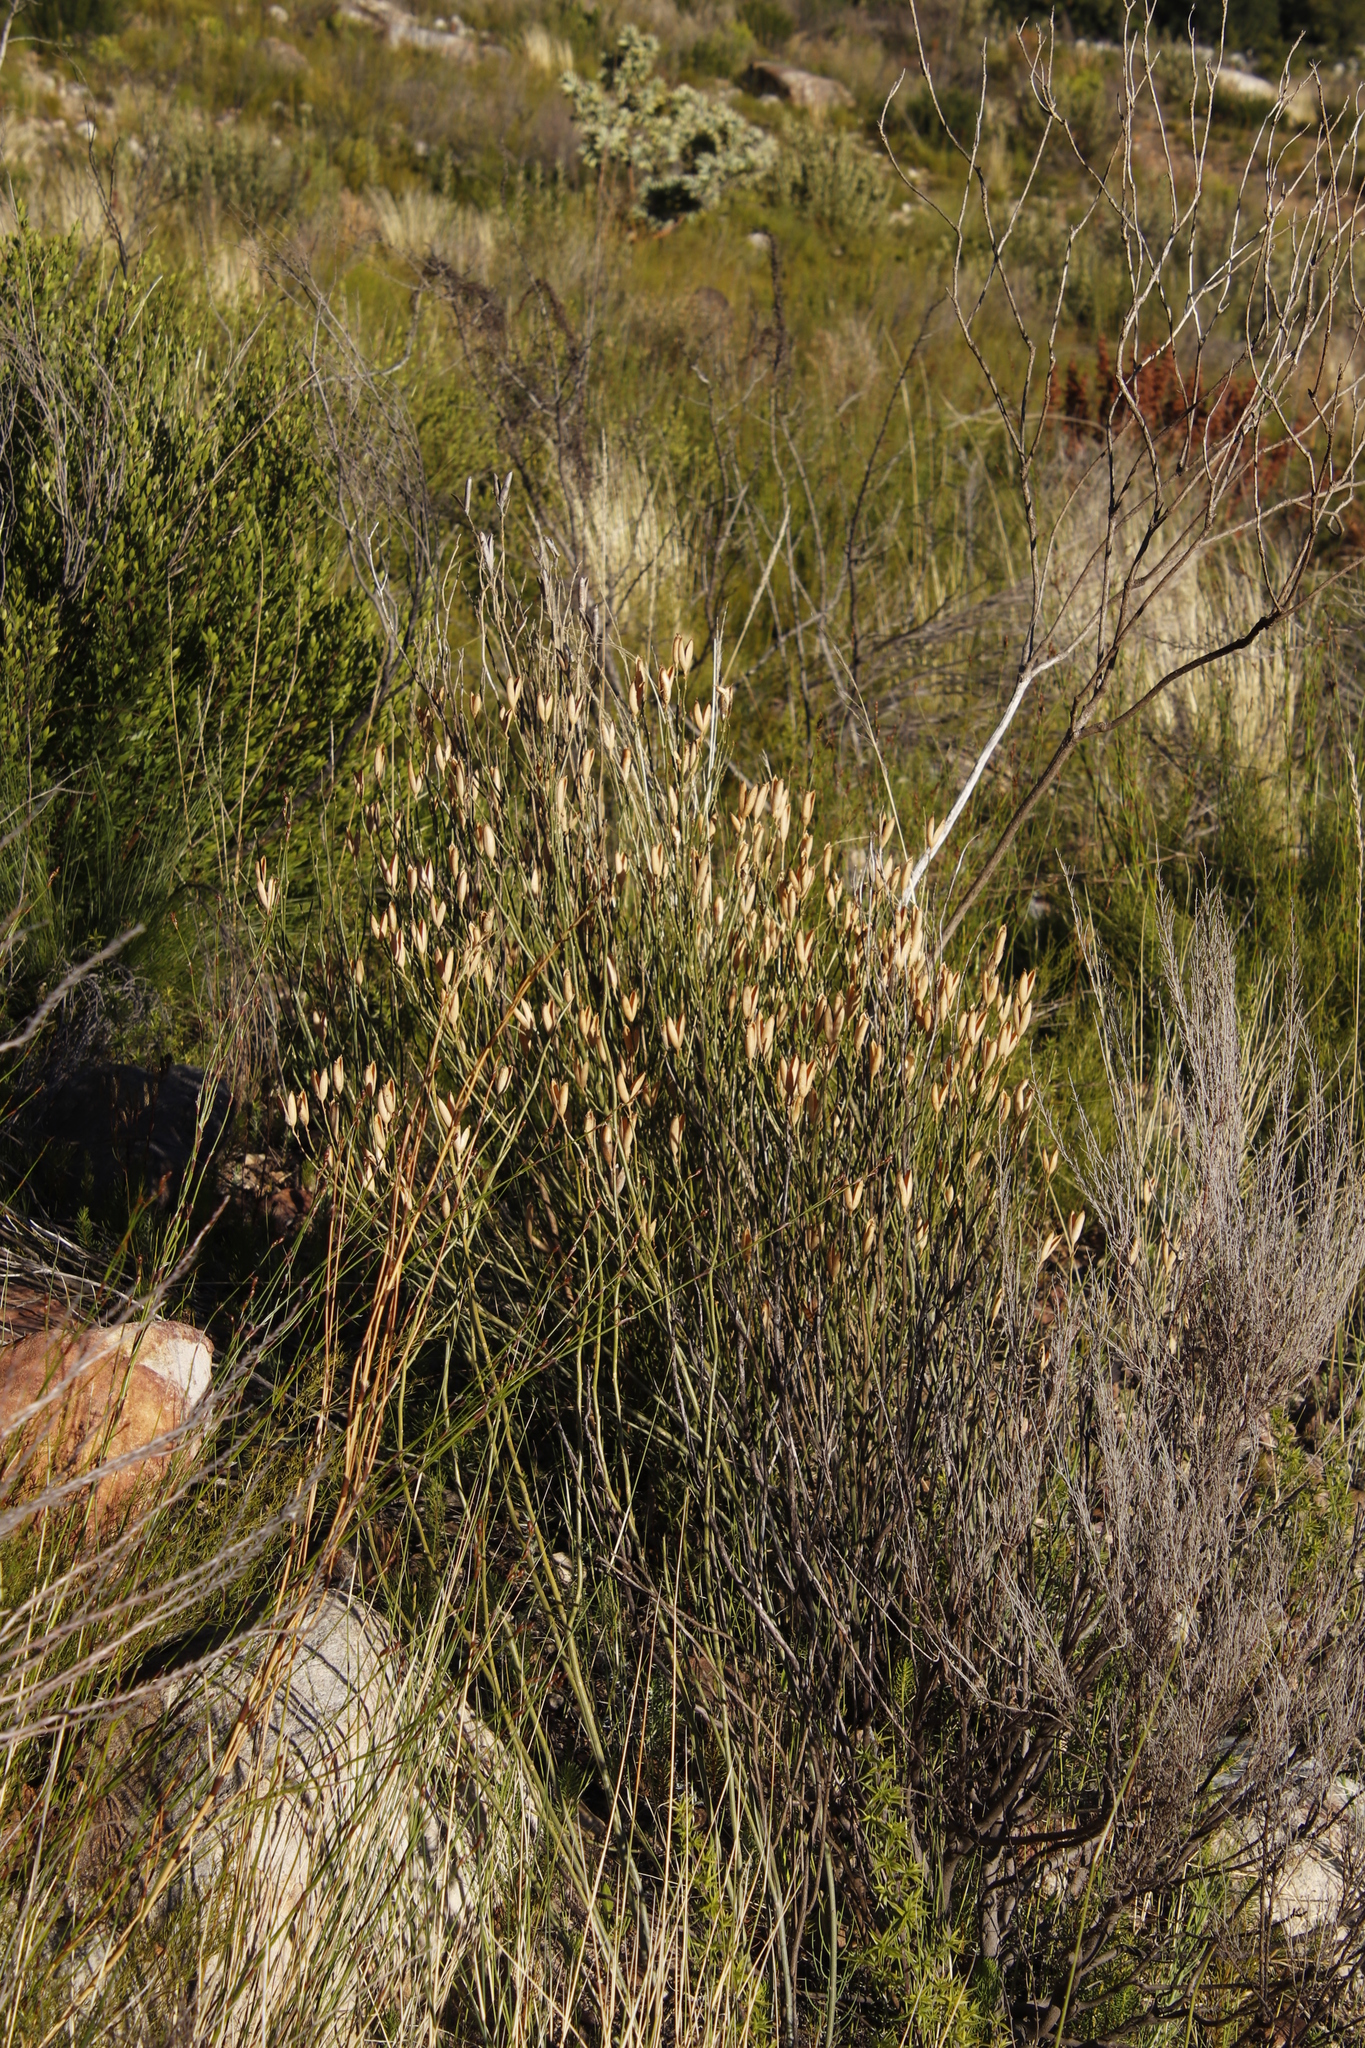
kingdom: Plantae
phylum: Tracheophyta
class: Magnoliopsida
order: Solanales
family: Montiniaceae
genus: Montinia
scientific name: Montinia caryophyllacea
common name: Wild clove-bush
